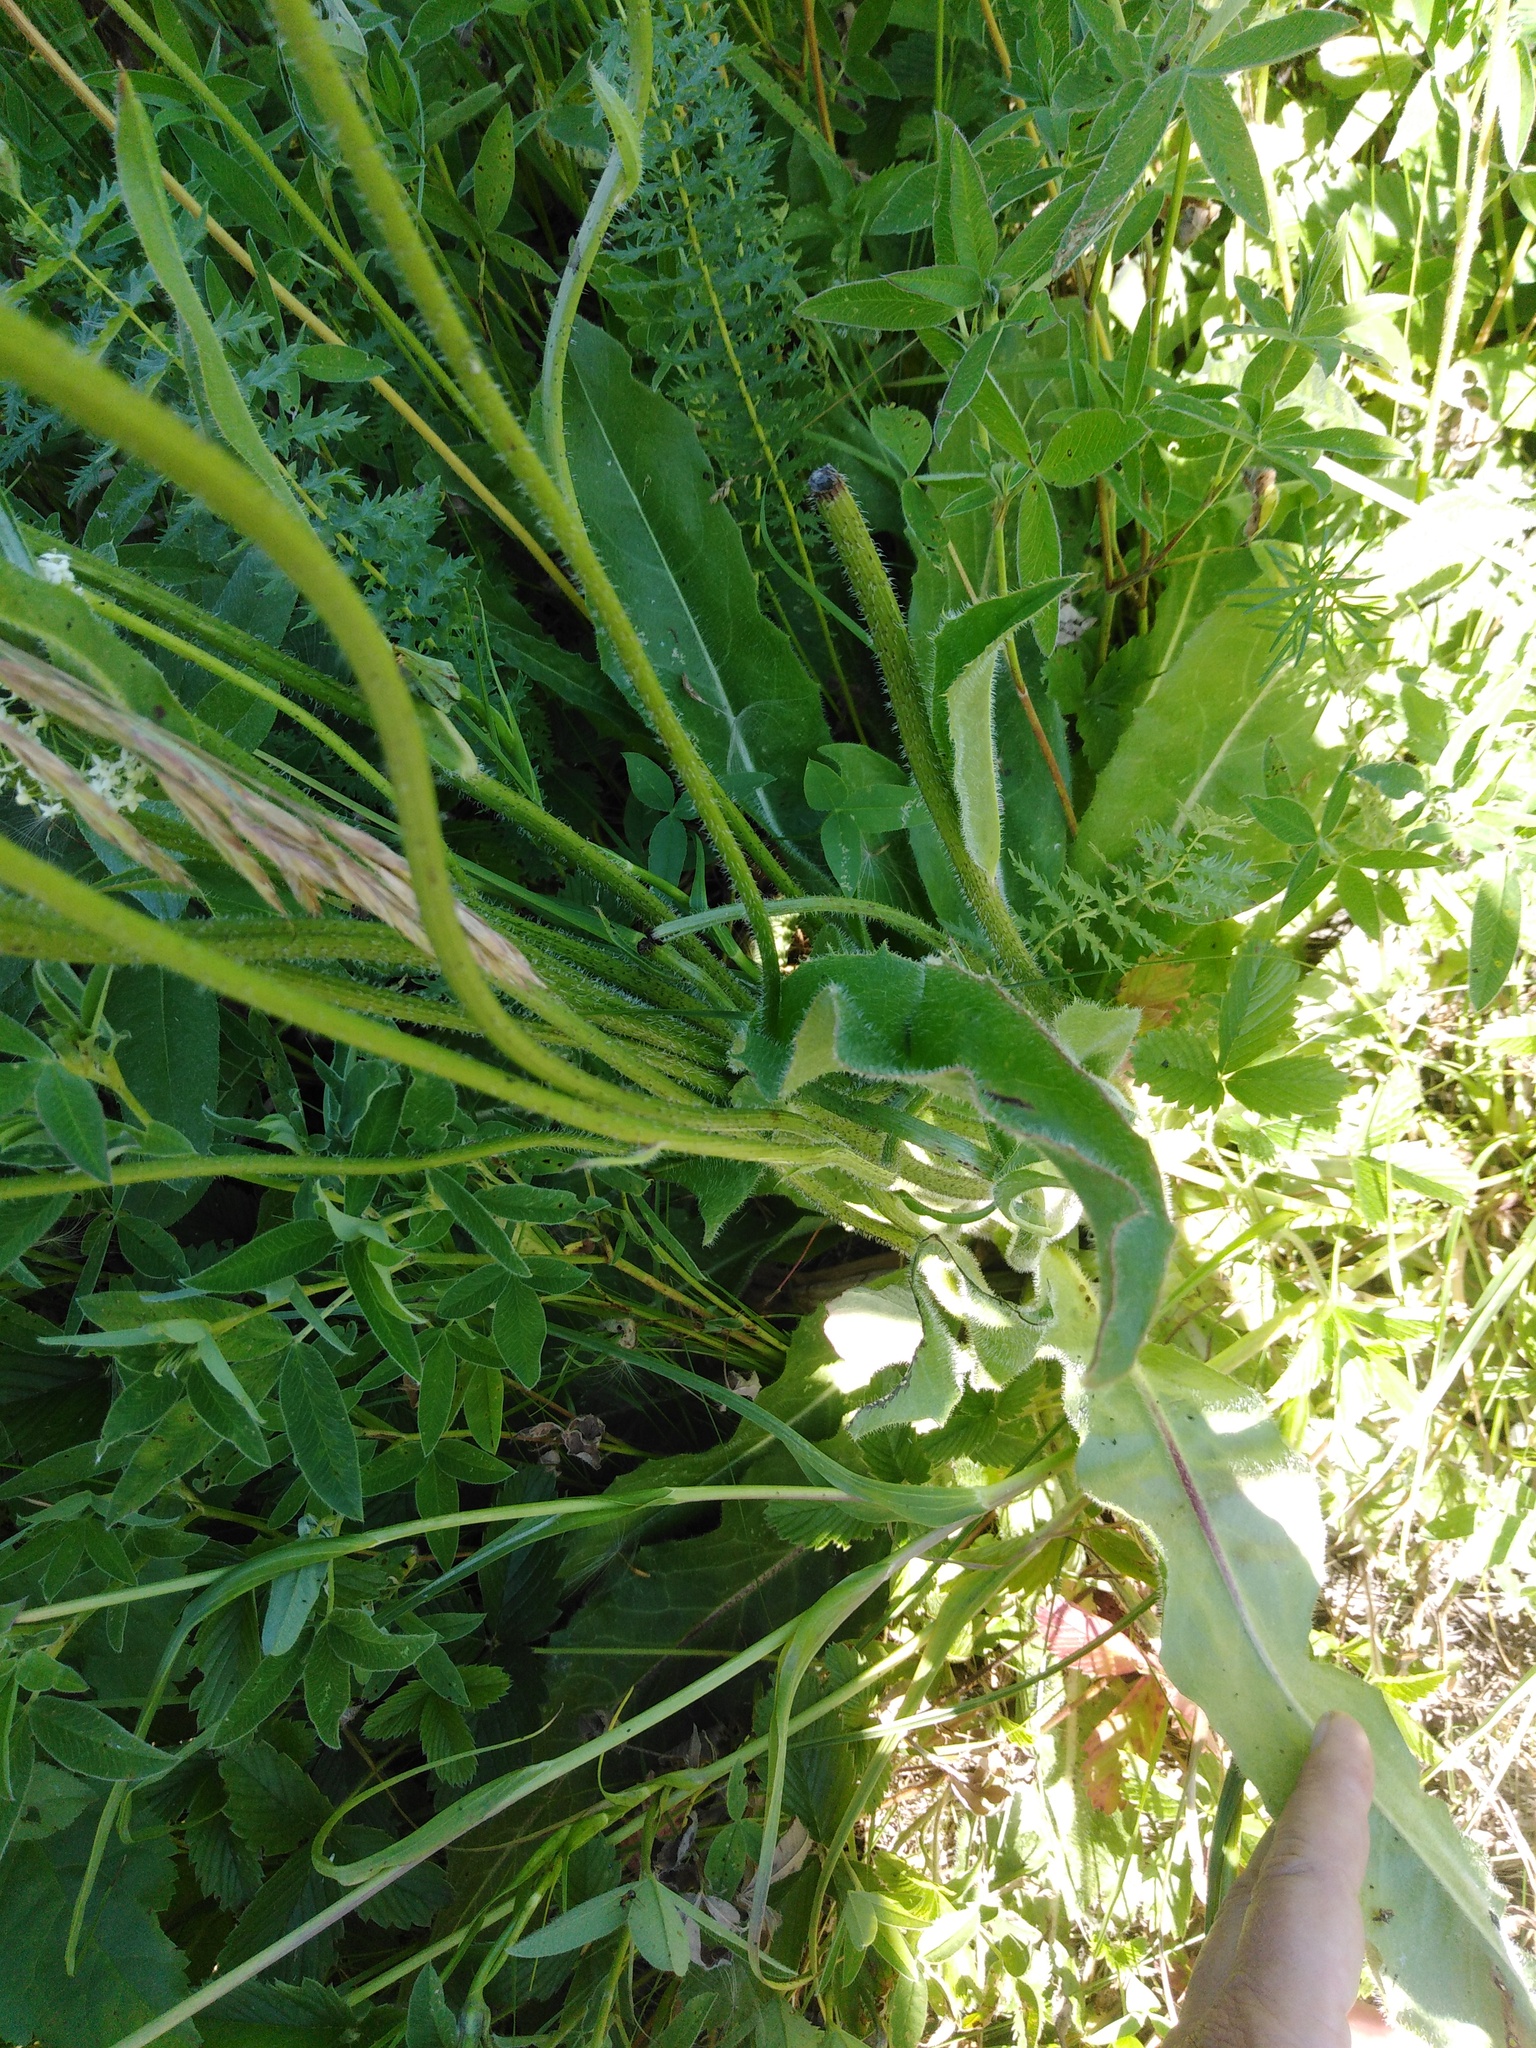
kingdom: Plantae
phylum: Tracheophyta
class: Magnoliopsida
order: Asterales
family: Asteraceae
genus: Trommsdorffia
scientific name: Trommsdorffia maculata
